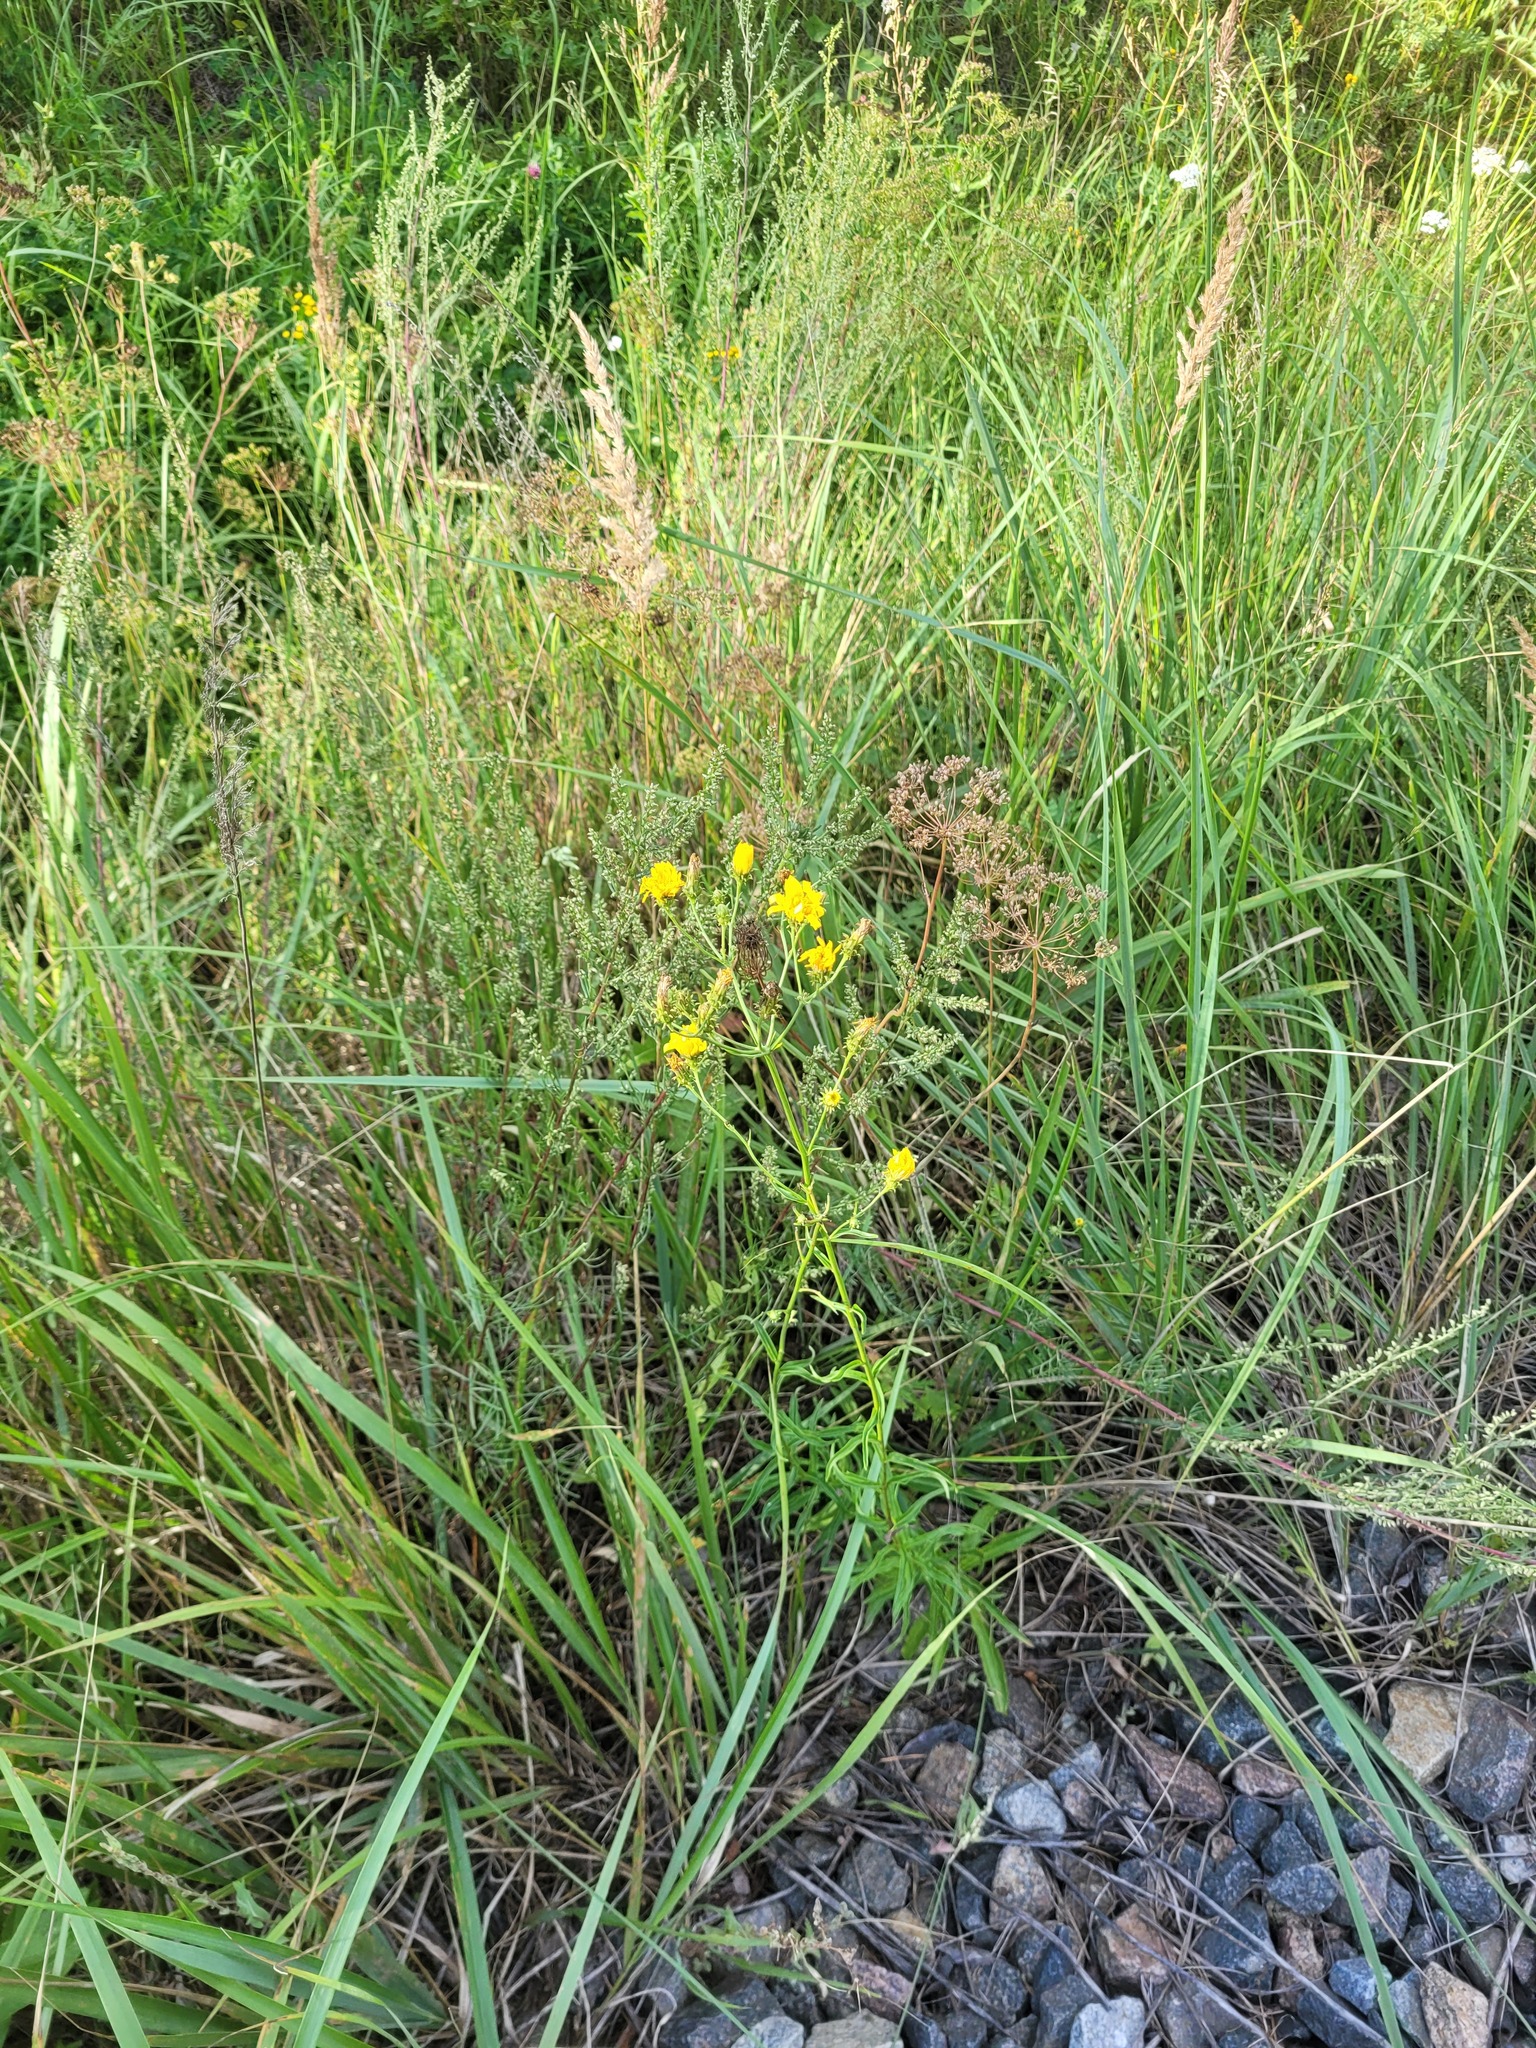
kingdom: Plantae
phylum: Tracheophyta
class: Magnoliopsida
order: Asterales
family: Asteraceae
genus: Hieracium
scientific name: Hieracium umbellatum
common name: Northern hawkweed
